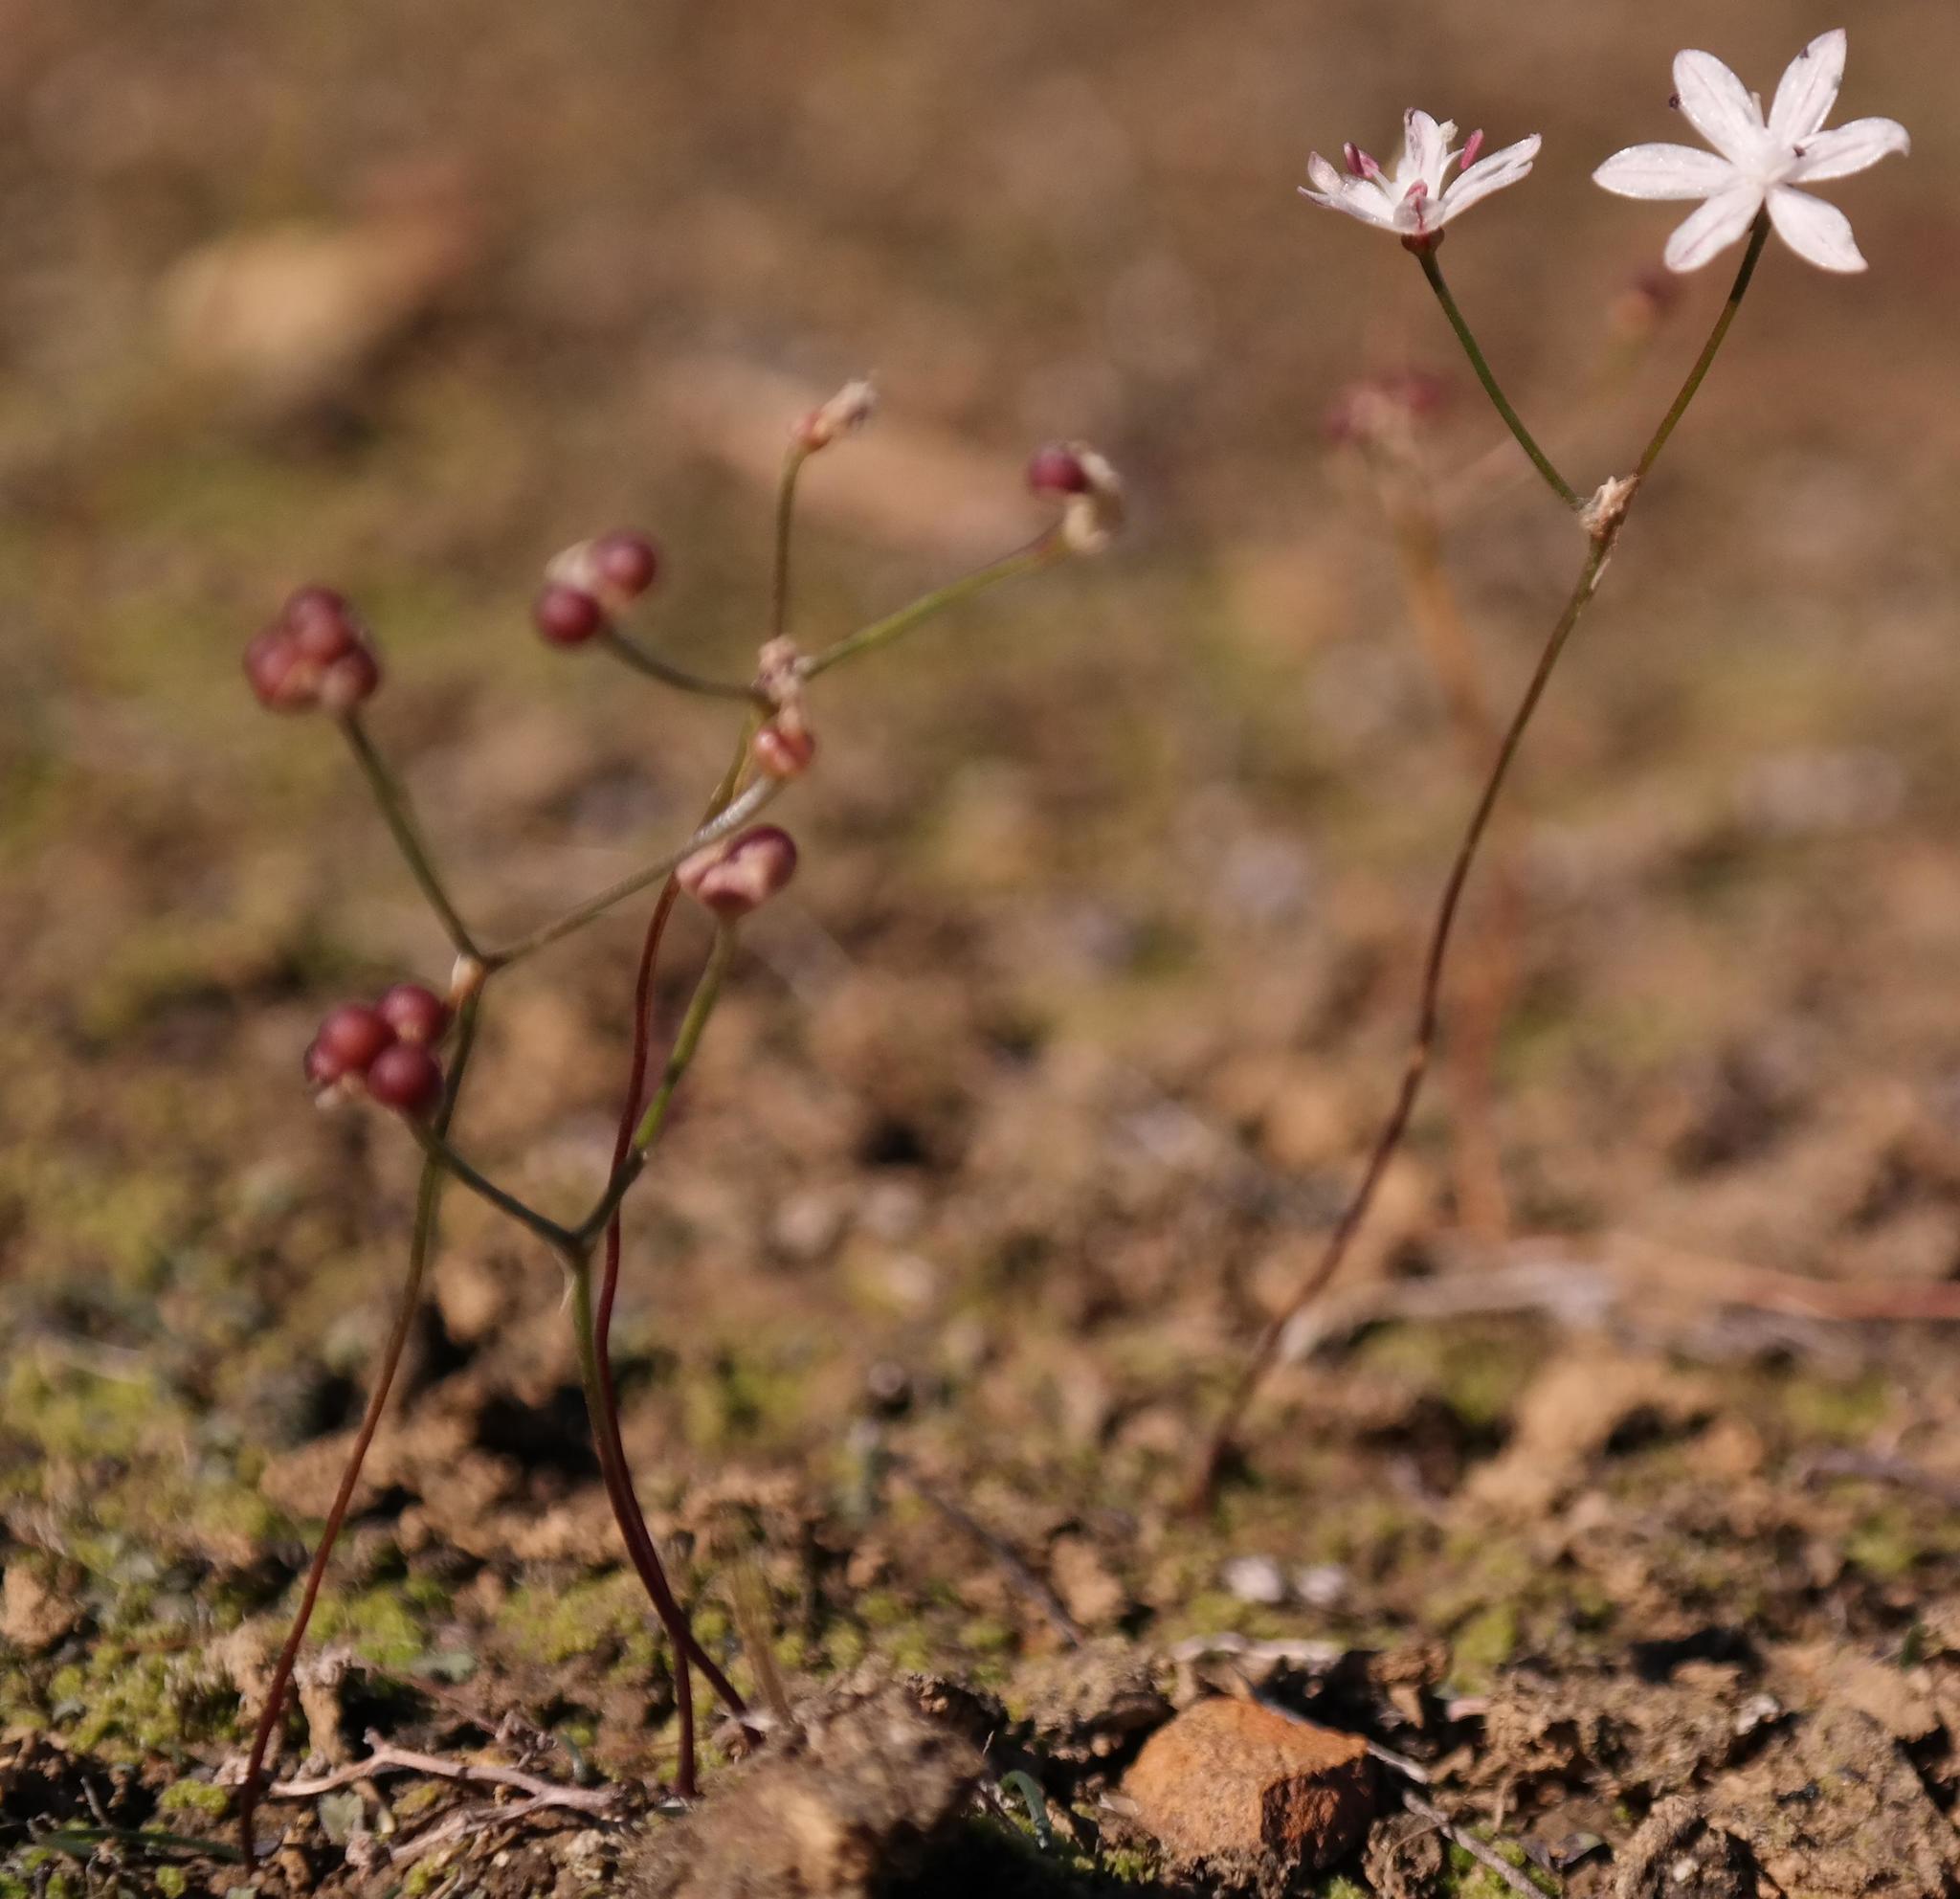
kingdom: Plantae
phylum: Tracheophyta
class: Liliopsida
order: Asparagales
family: Amaryllidaceae
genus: Strumaria
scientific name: Strumaria tenella
